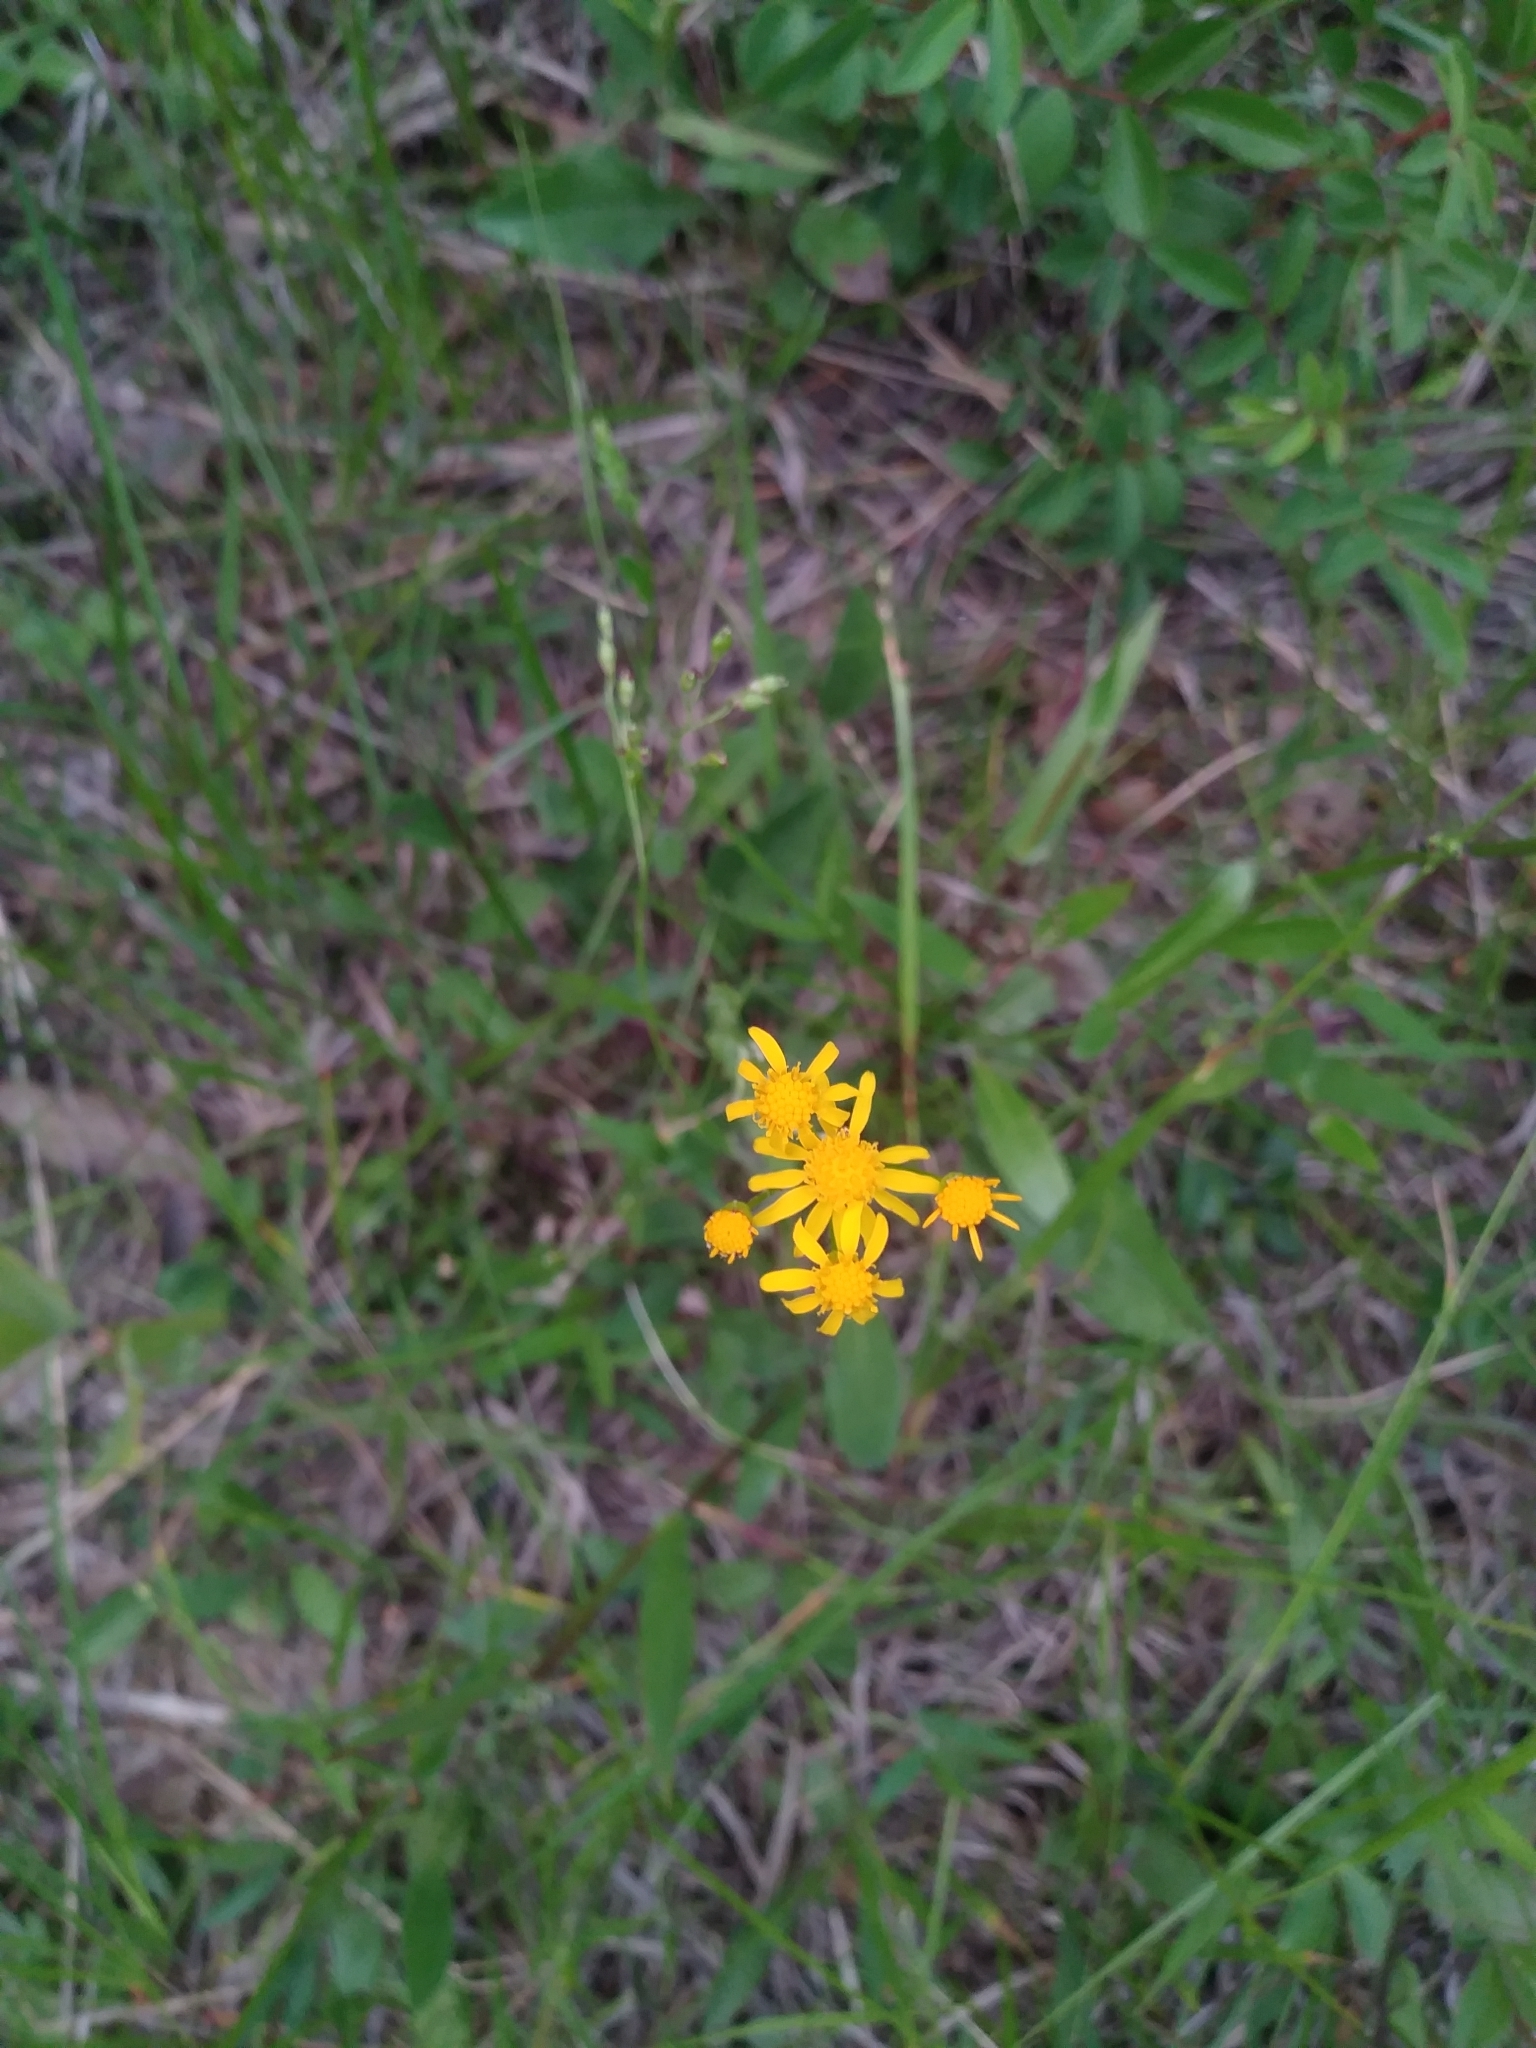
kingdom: Plantae
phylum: Tracheophyta
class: Magnoliopsida
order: Asterales
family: Asteraceae
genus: Packera
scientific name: Packera anonyma
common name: Small ragwort
